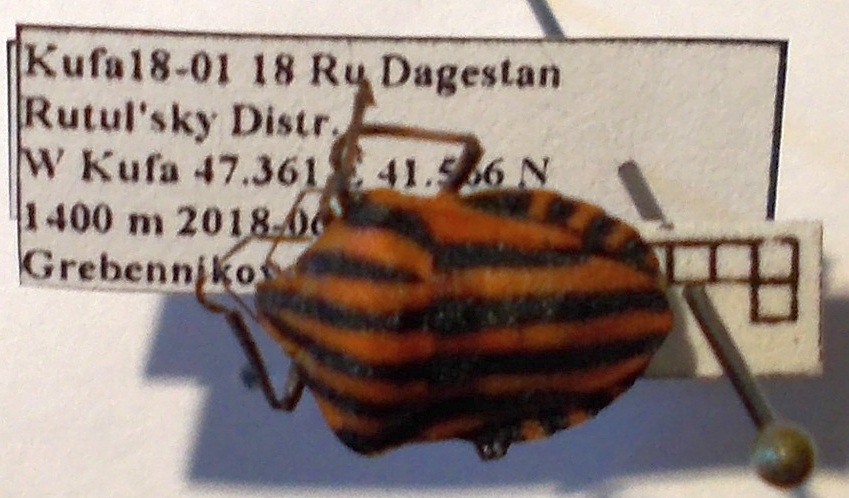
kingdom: Animalia
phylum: Arthropoda
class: Insecta
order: Hemiptera
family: Pentatomidae
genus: Graphosoma
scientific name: Graphosoma italicum
